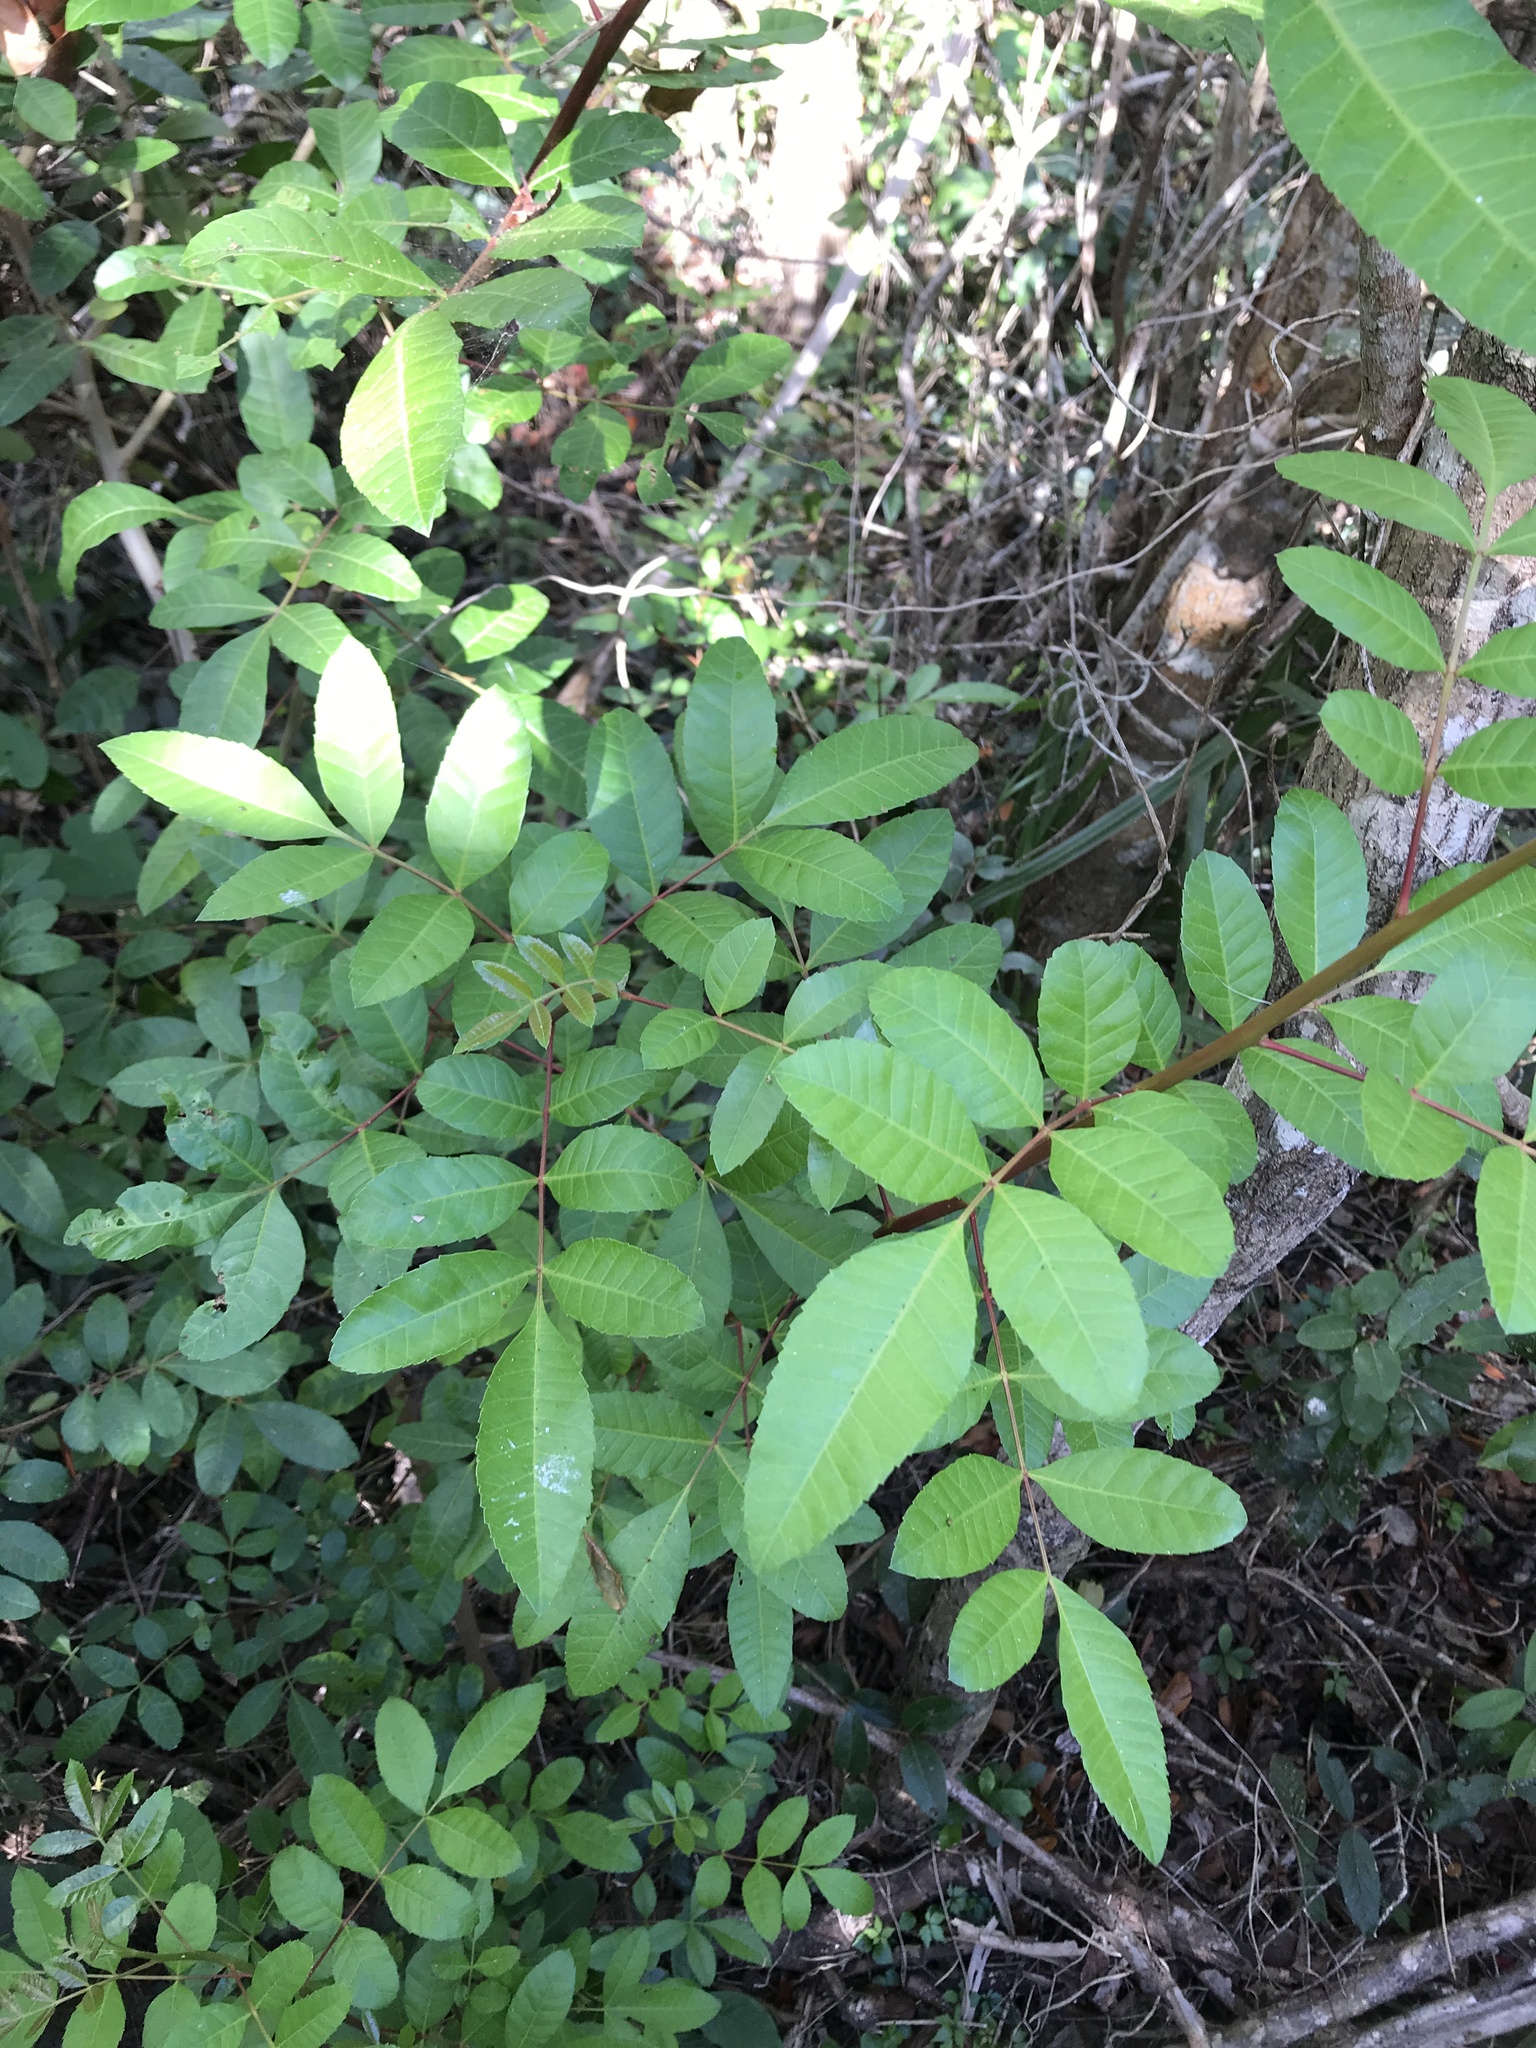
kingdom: Plantae
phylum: Tracheophyta
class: Magnoliopsida
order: Sapindales
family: Anacardiaceae
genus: Schinus
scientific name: Schinus terebinthifolia
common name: Brazilian peppertree
